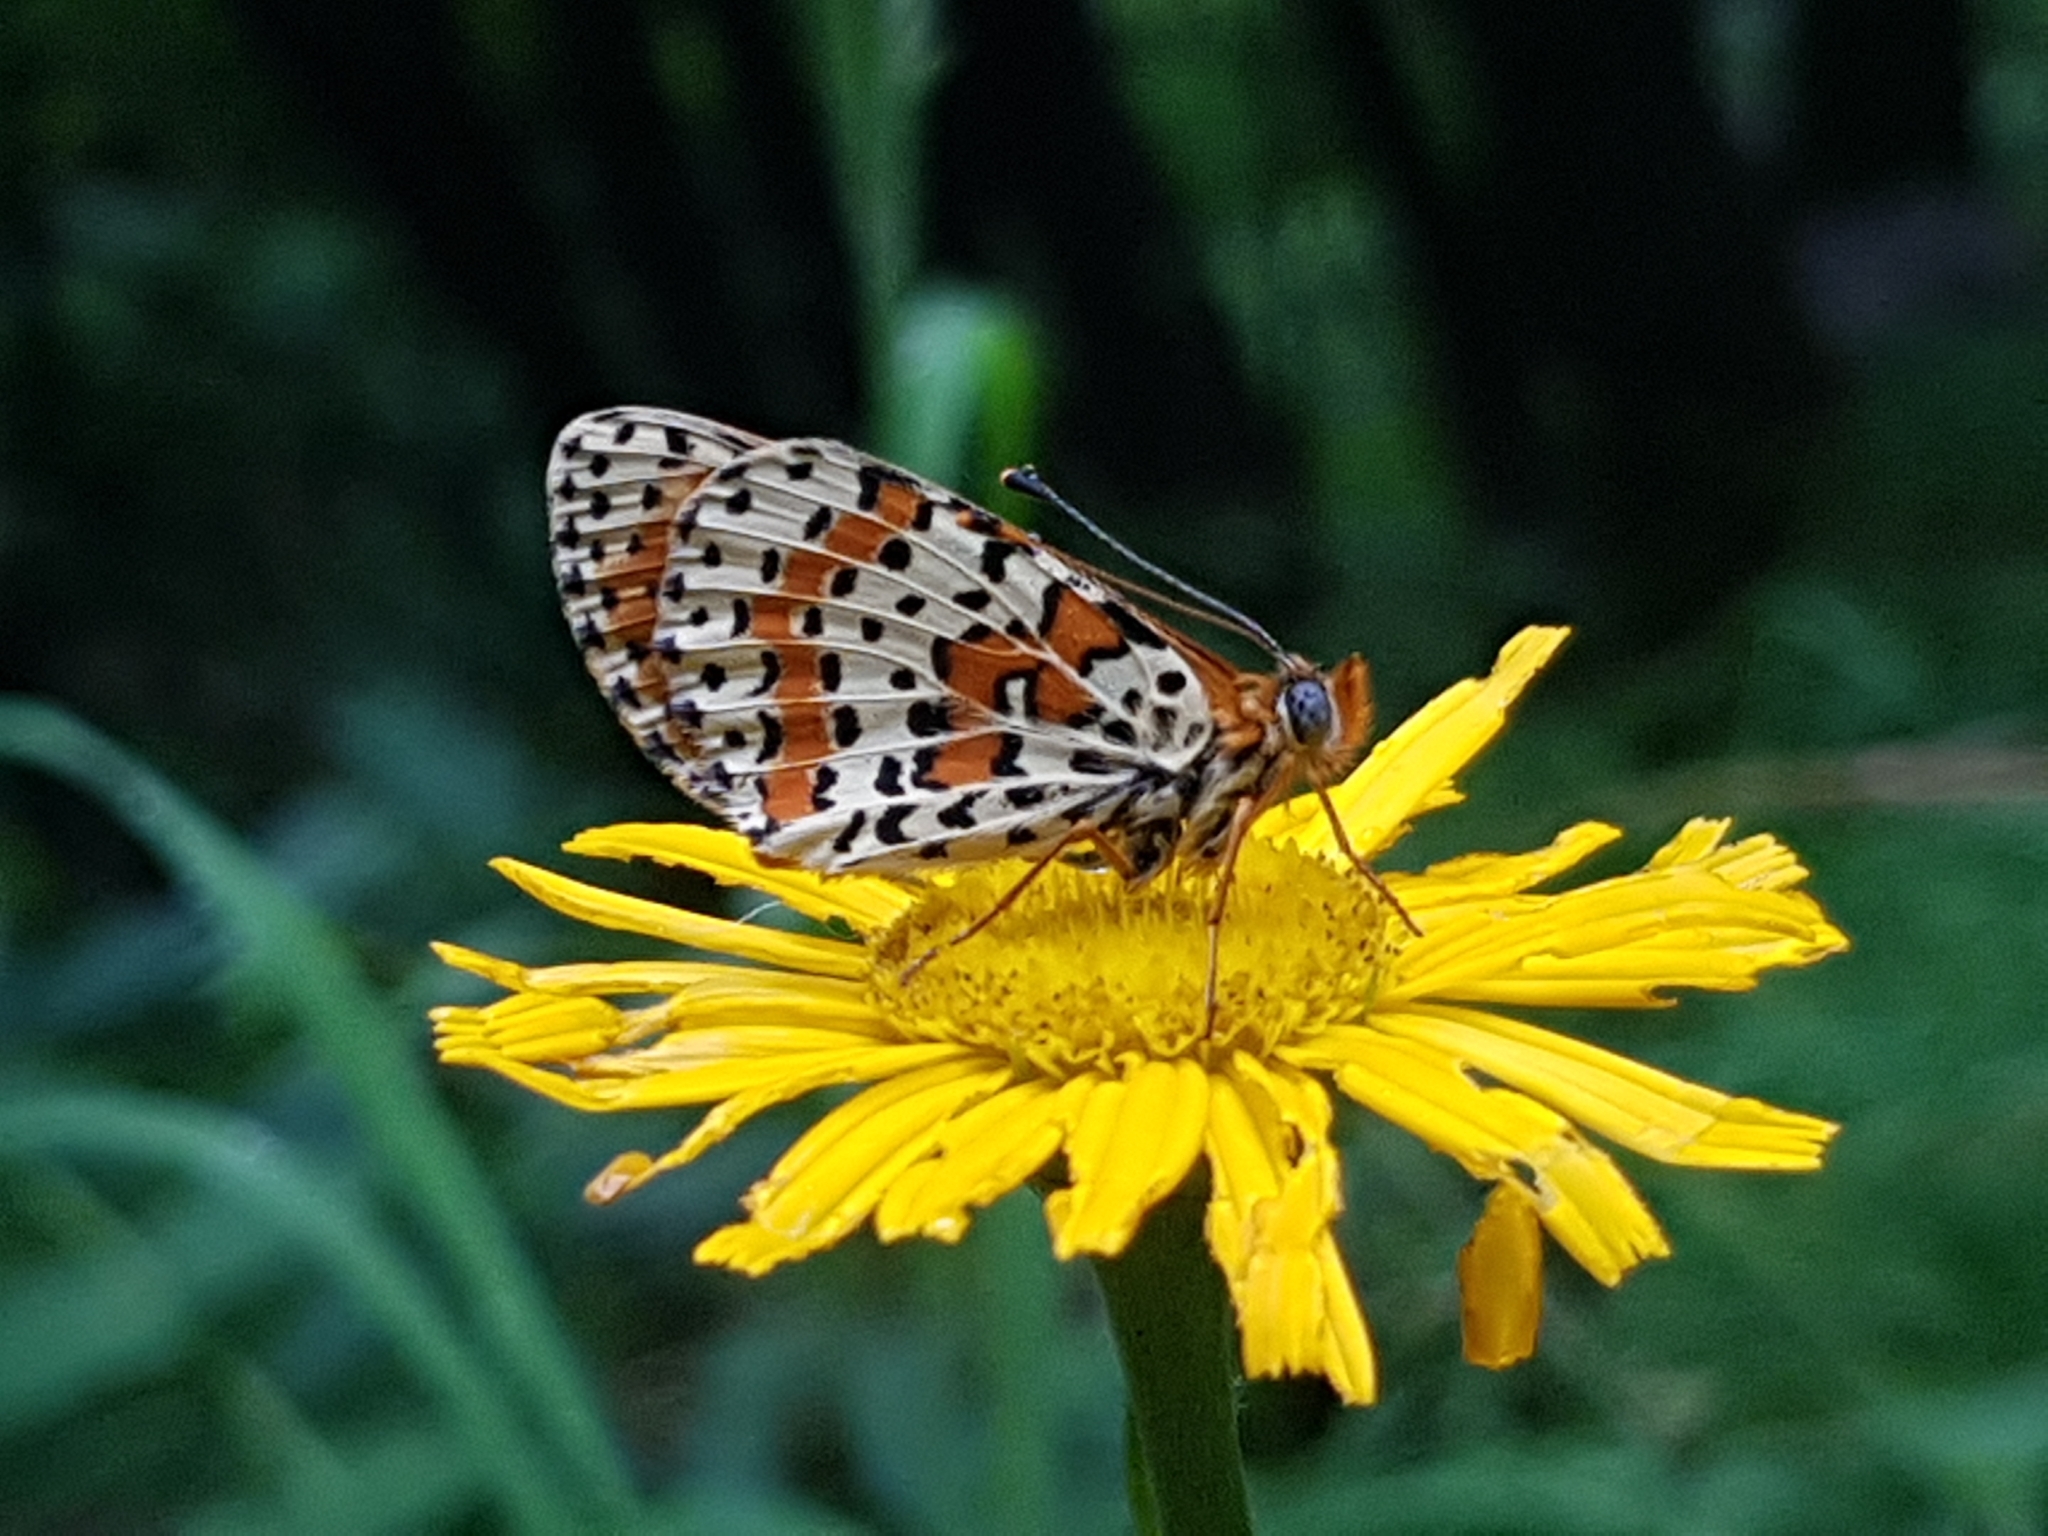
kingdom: Animalia
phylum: Arthropoda
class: Insecta
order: Lepidoptera
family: Nymphalidae
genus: Melitaea
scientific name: Melitaea didyma
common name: Spotted fritillary
